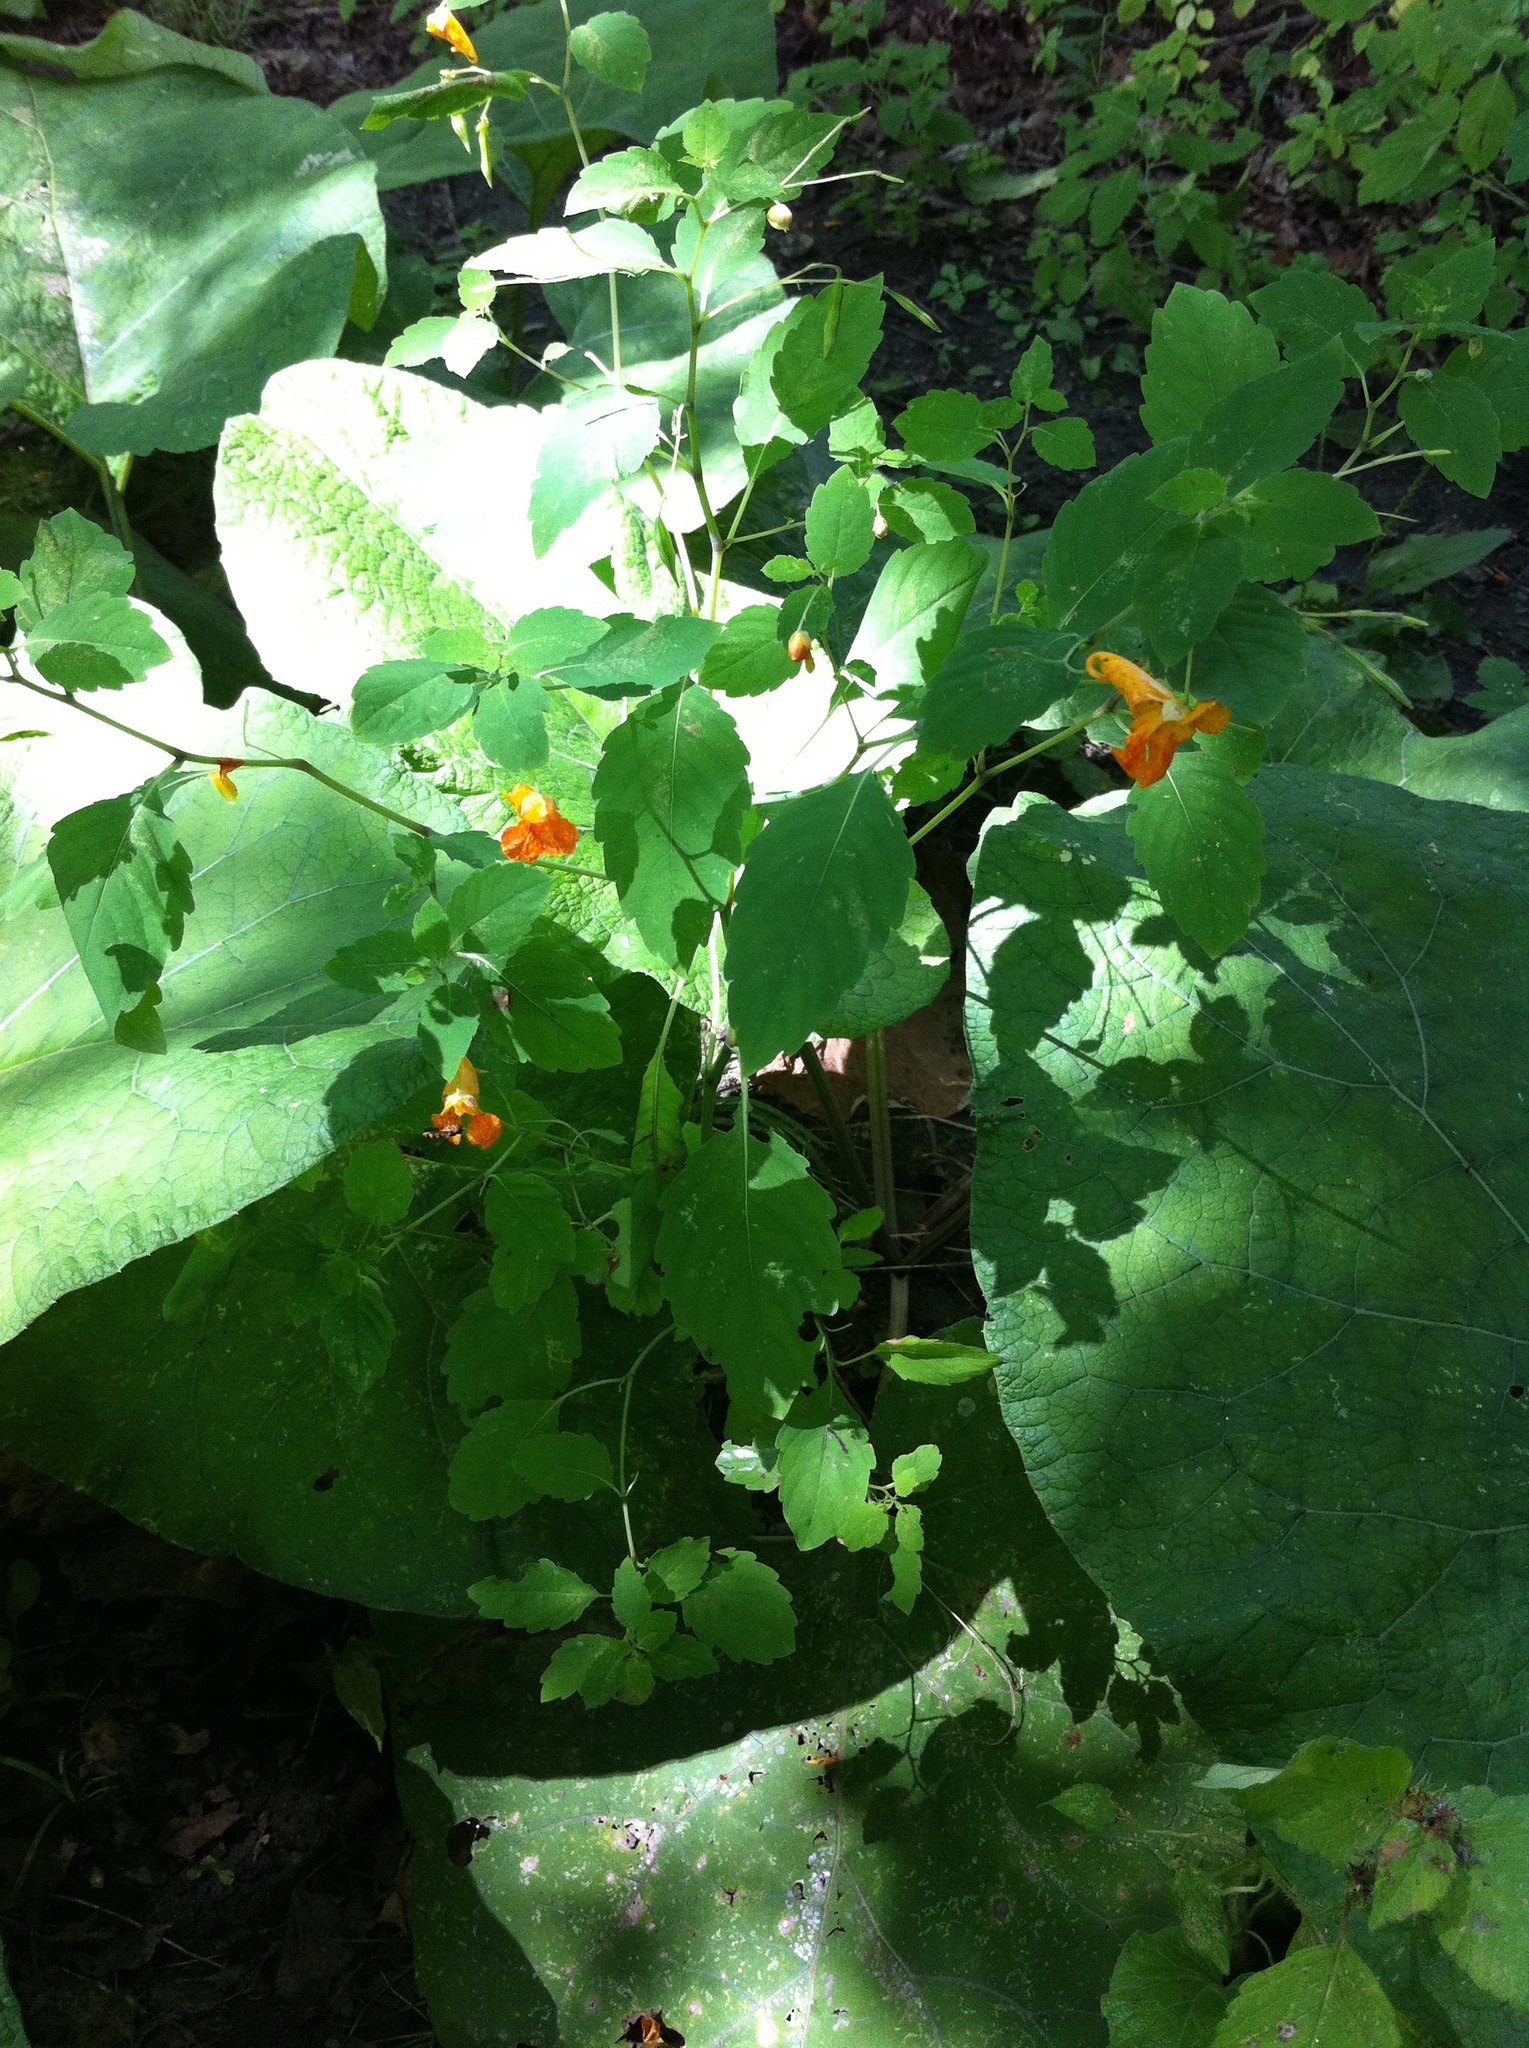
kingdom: Plantae
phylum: Tracheophyta
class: Magnoliopsida
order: Ericales
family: Balsaminaceae
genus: Impatiens
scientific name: Impatiens capensis
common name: Orange balsam
